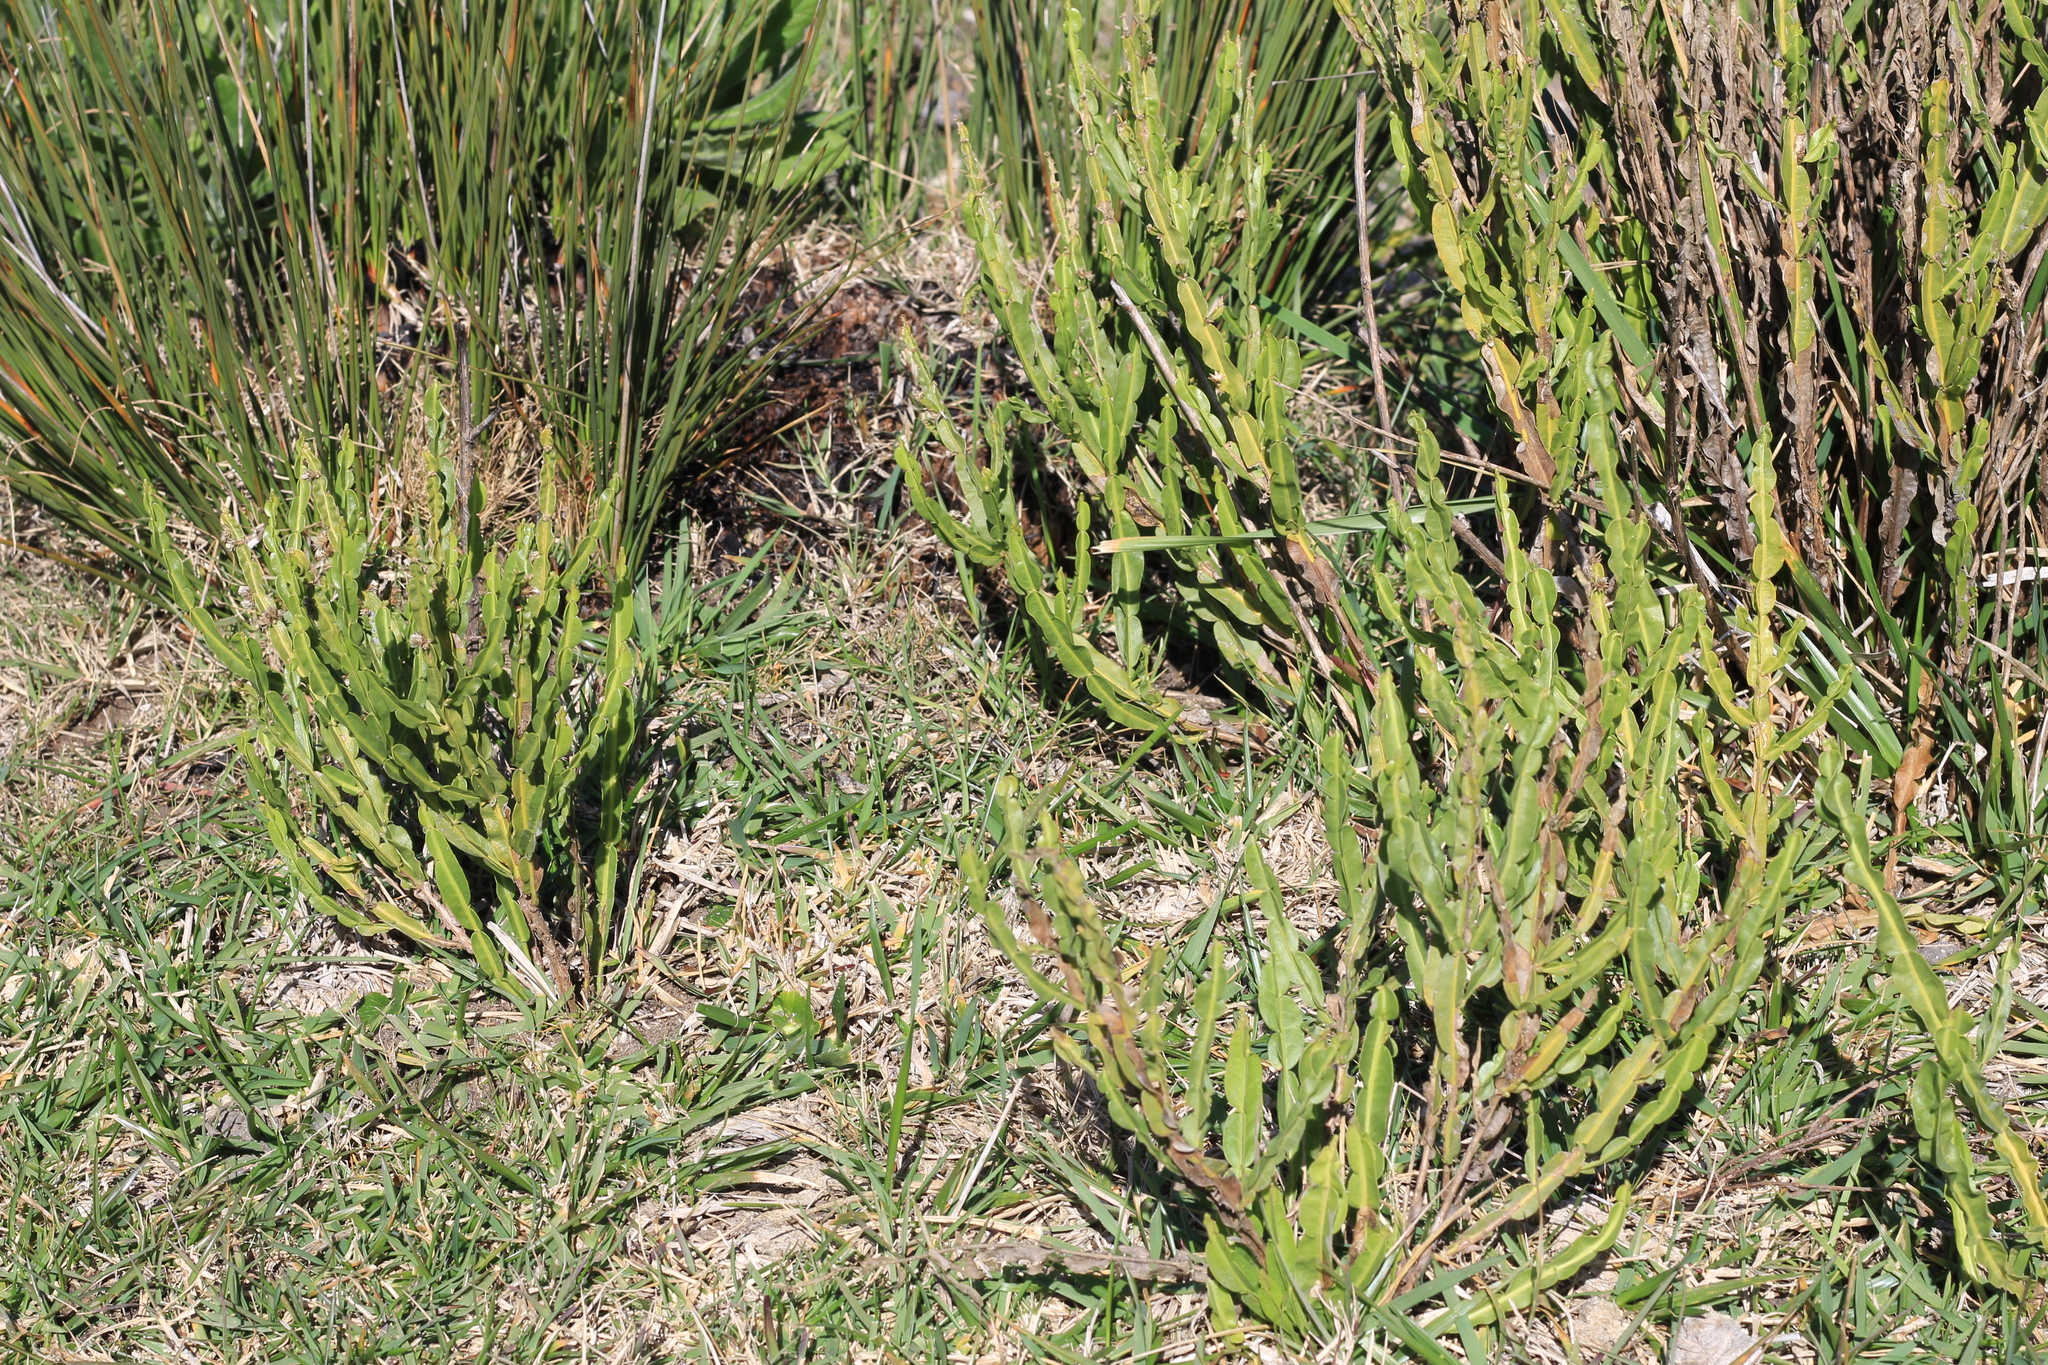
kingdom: Plantae
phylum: Tracheophyta
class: Magnoliopsida
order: Asterales
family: Asteraceae
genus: Baccharis
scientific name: Baccharis trimera
